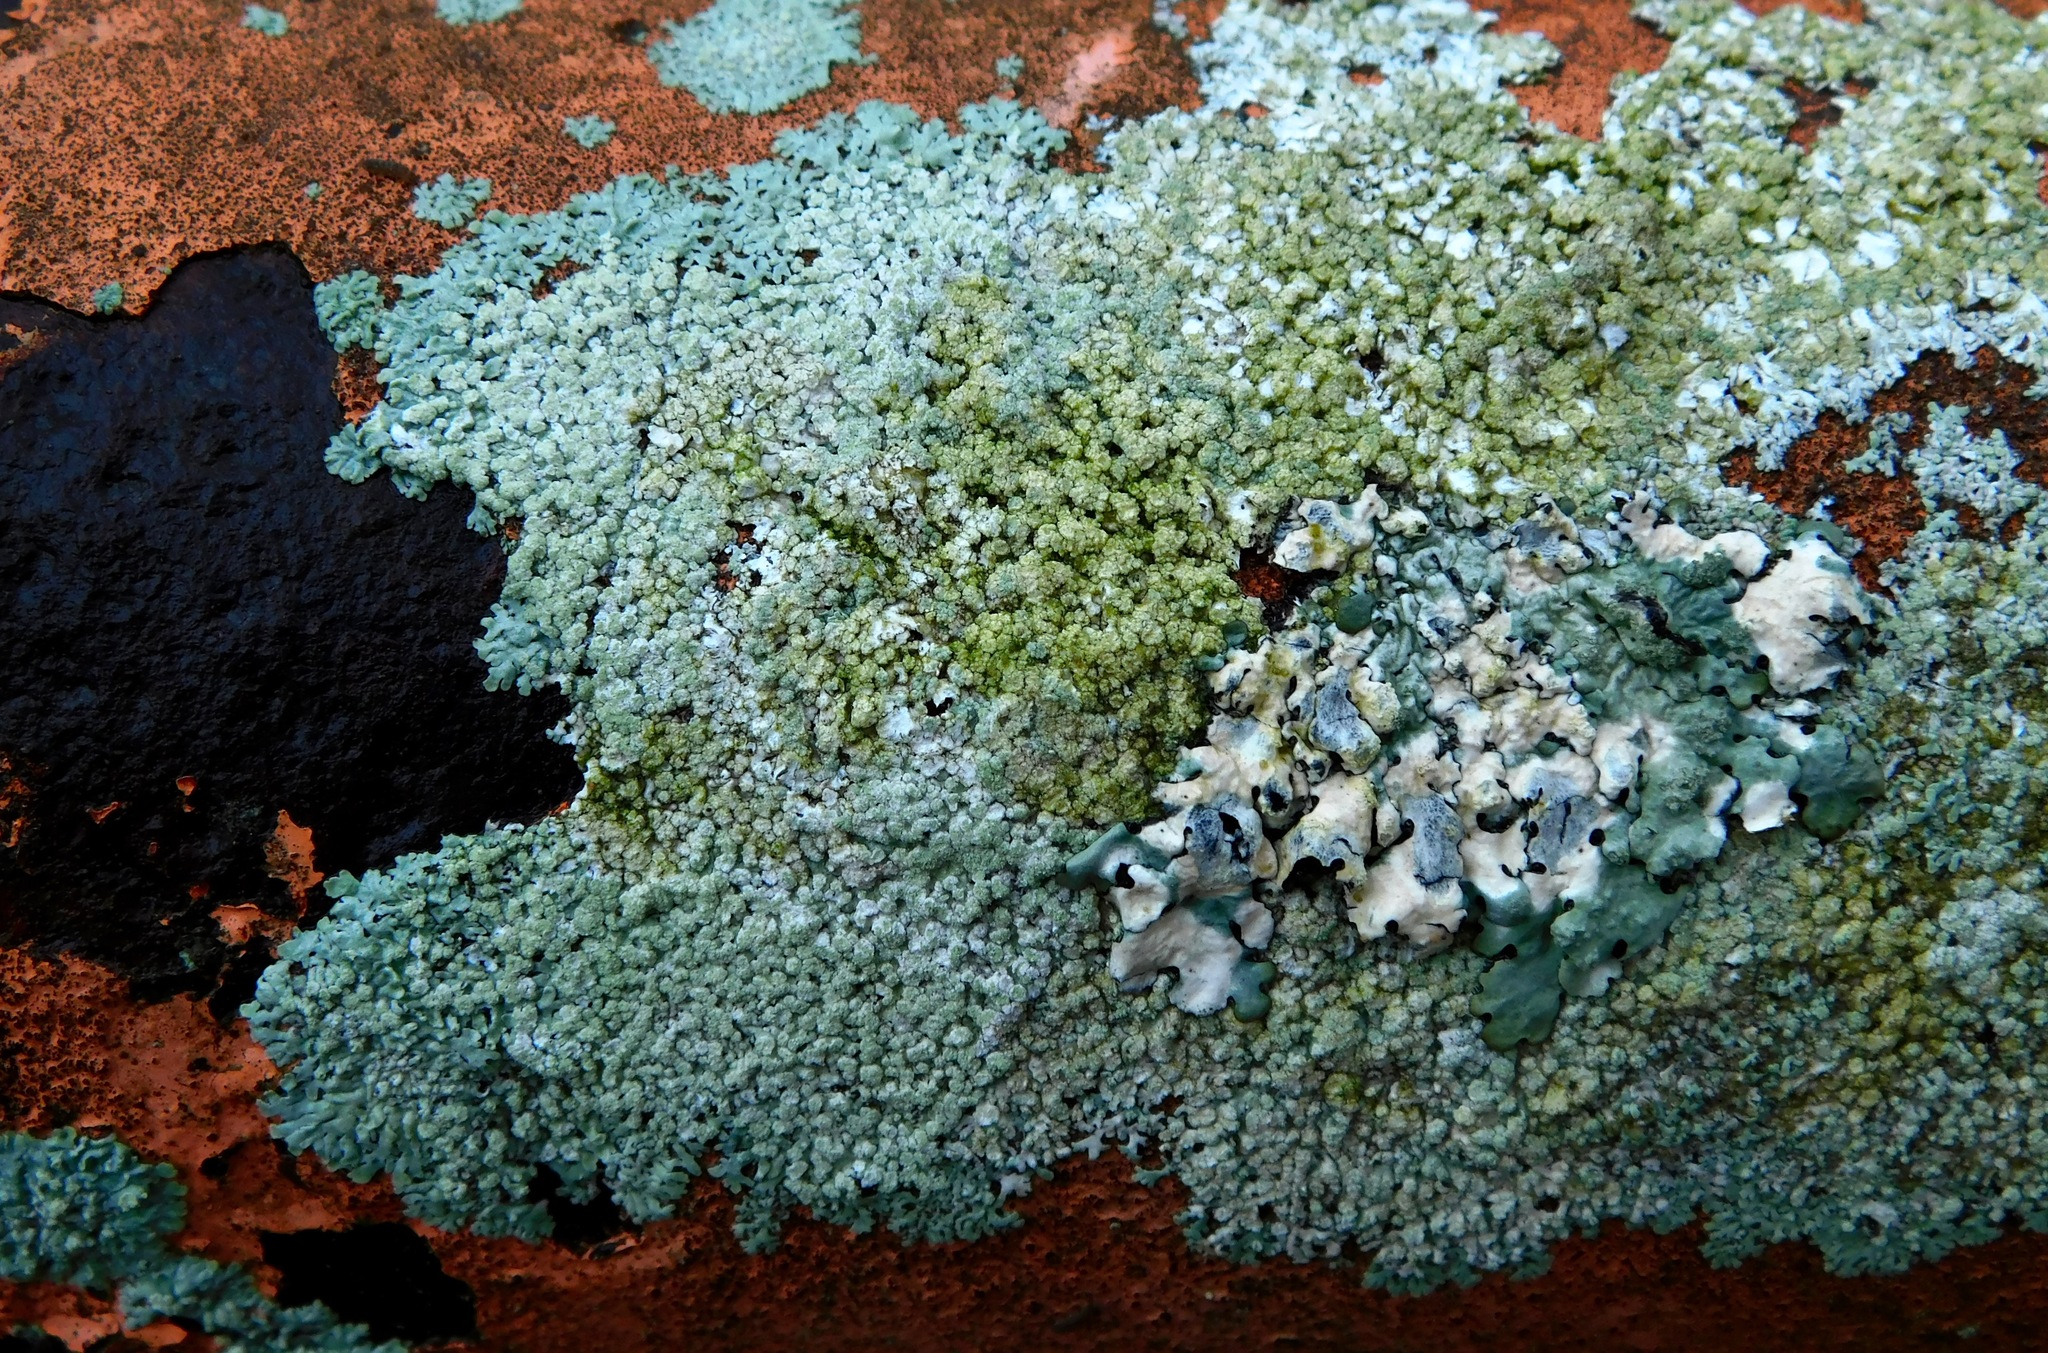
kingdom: Fungi
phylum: Ascomycota
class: Lecanoromycetes
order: Caliciales
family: Physciaceae
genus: Physcia
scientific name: Physcia poncinsii
